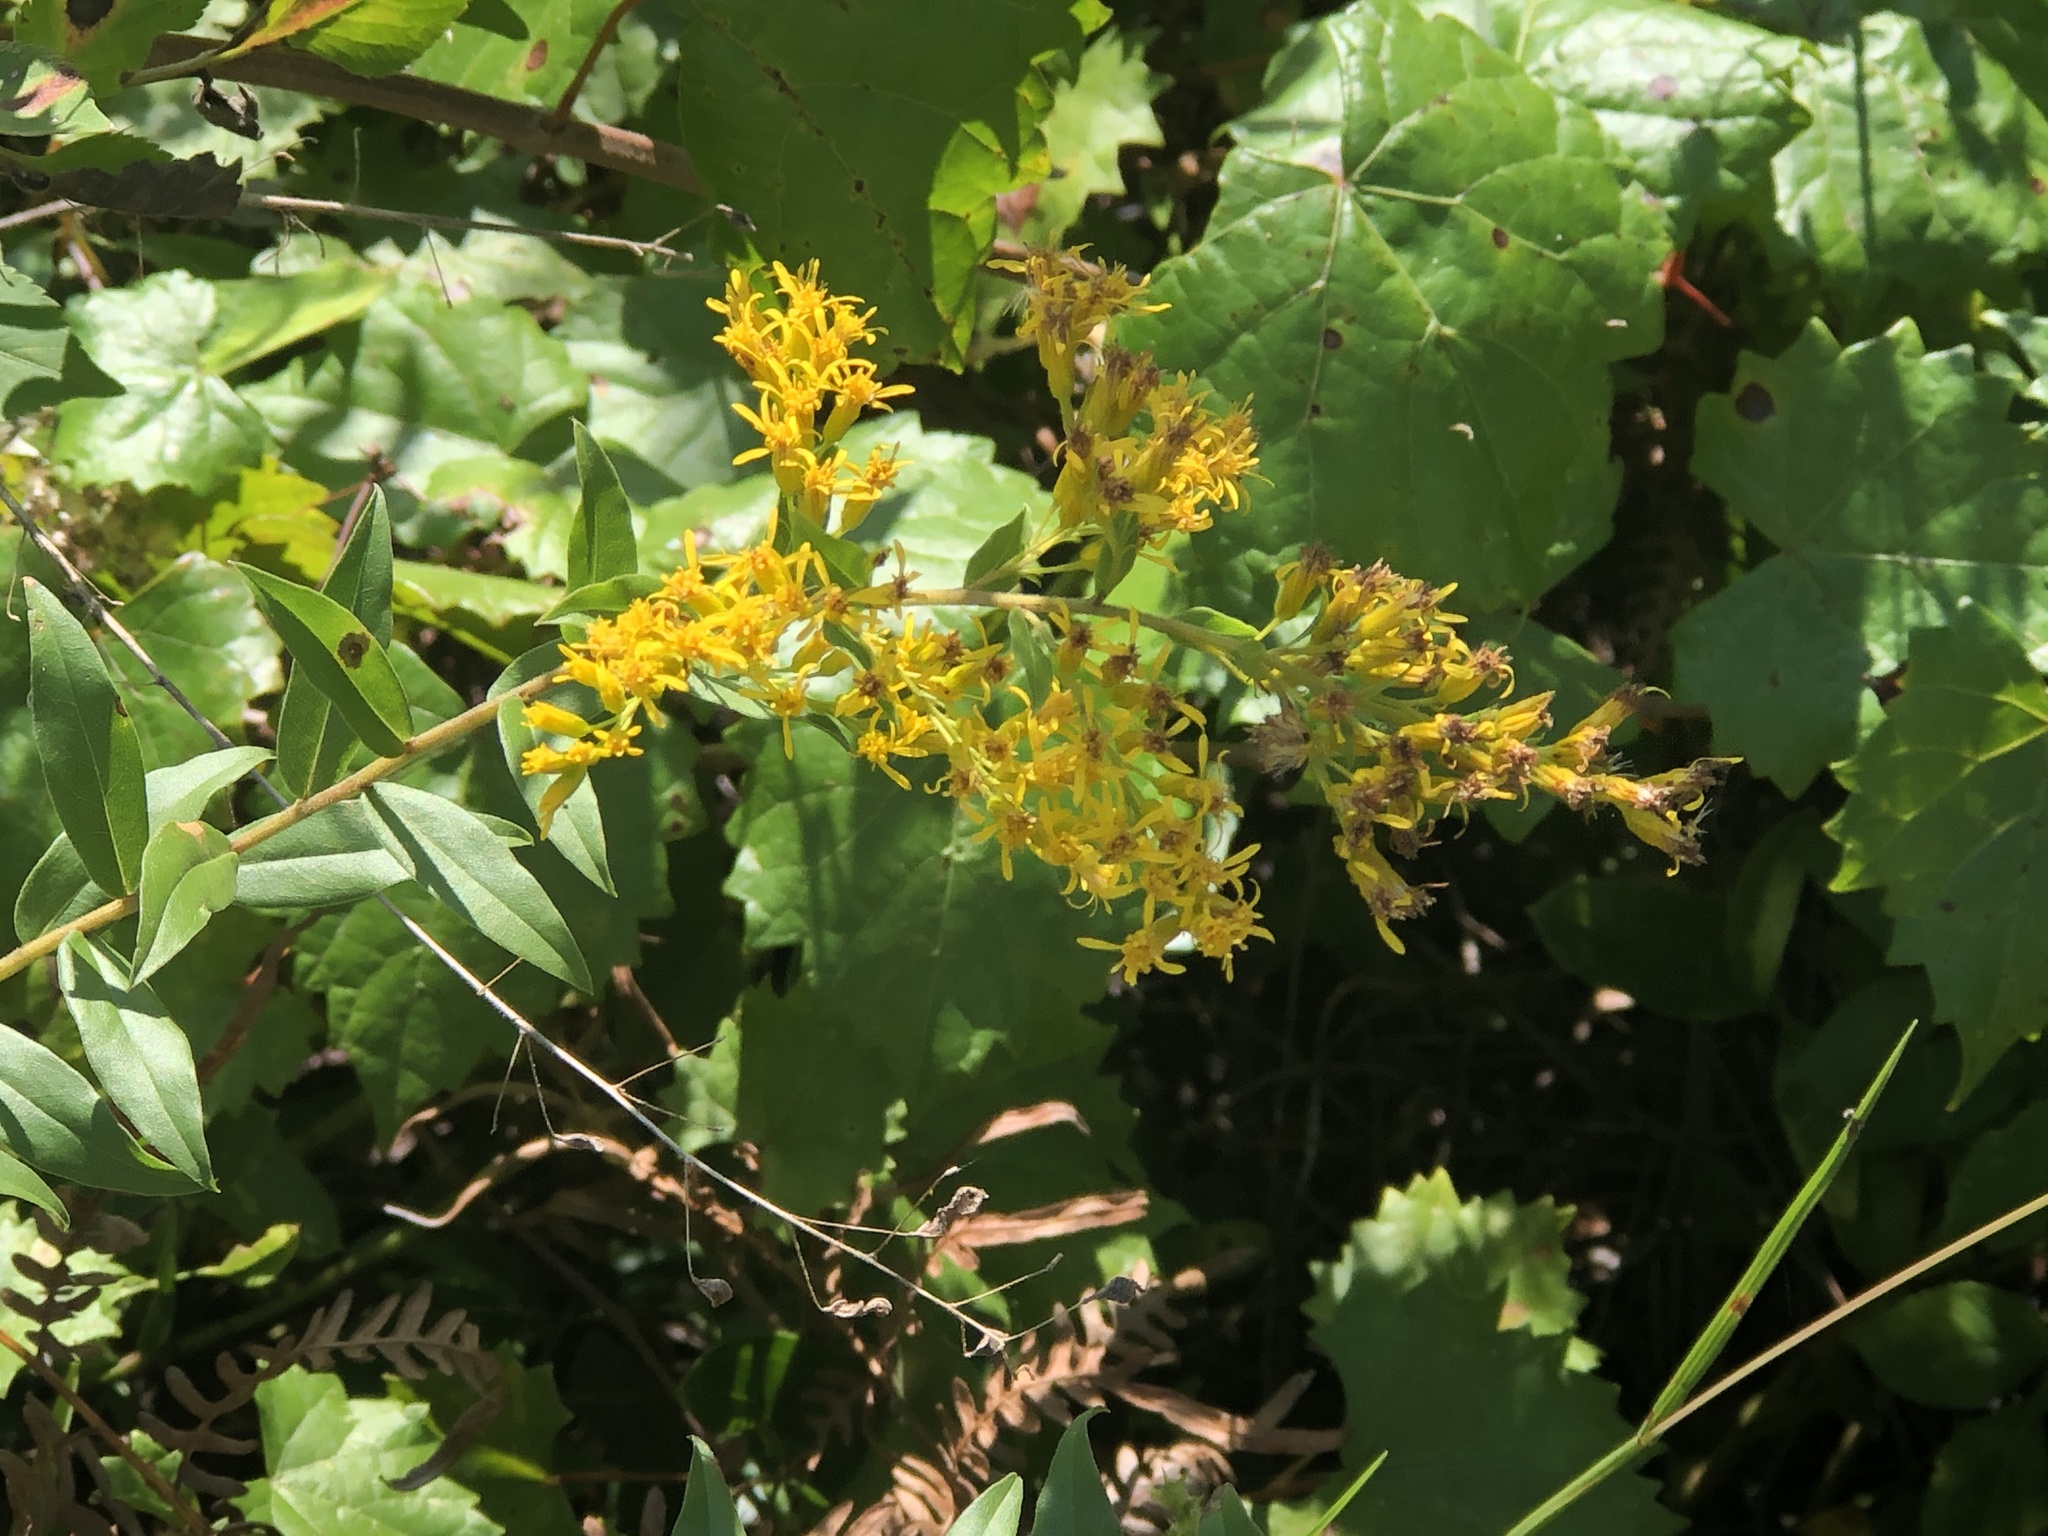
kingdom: Plantae
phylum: Tracheophyta
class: Magnoliopsida
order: Asterales
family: Asteraceae
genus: Solidago
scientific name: Solidago chapmanii
